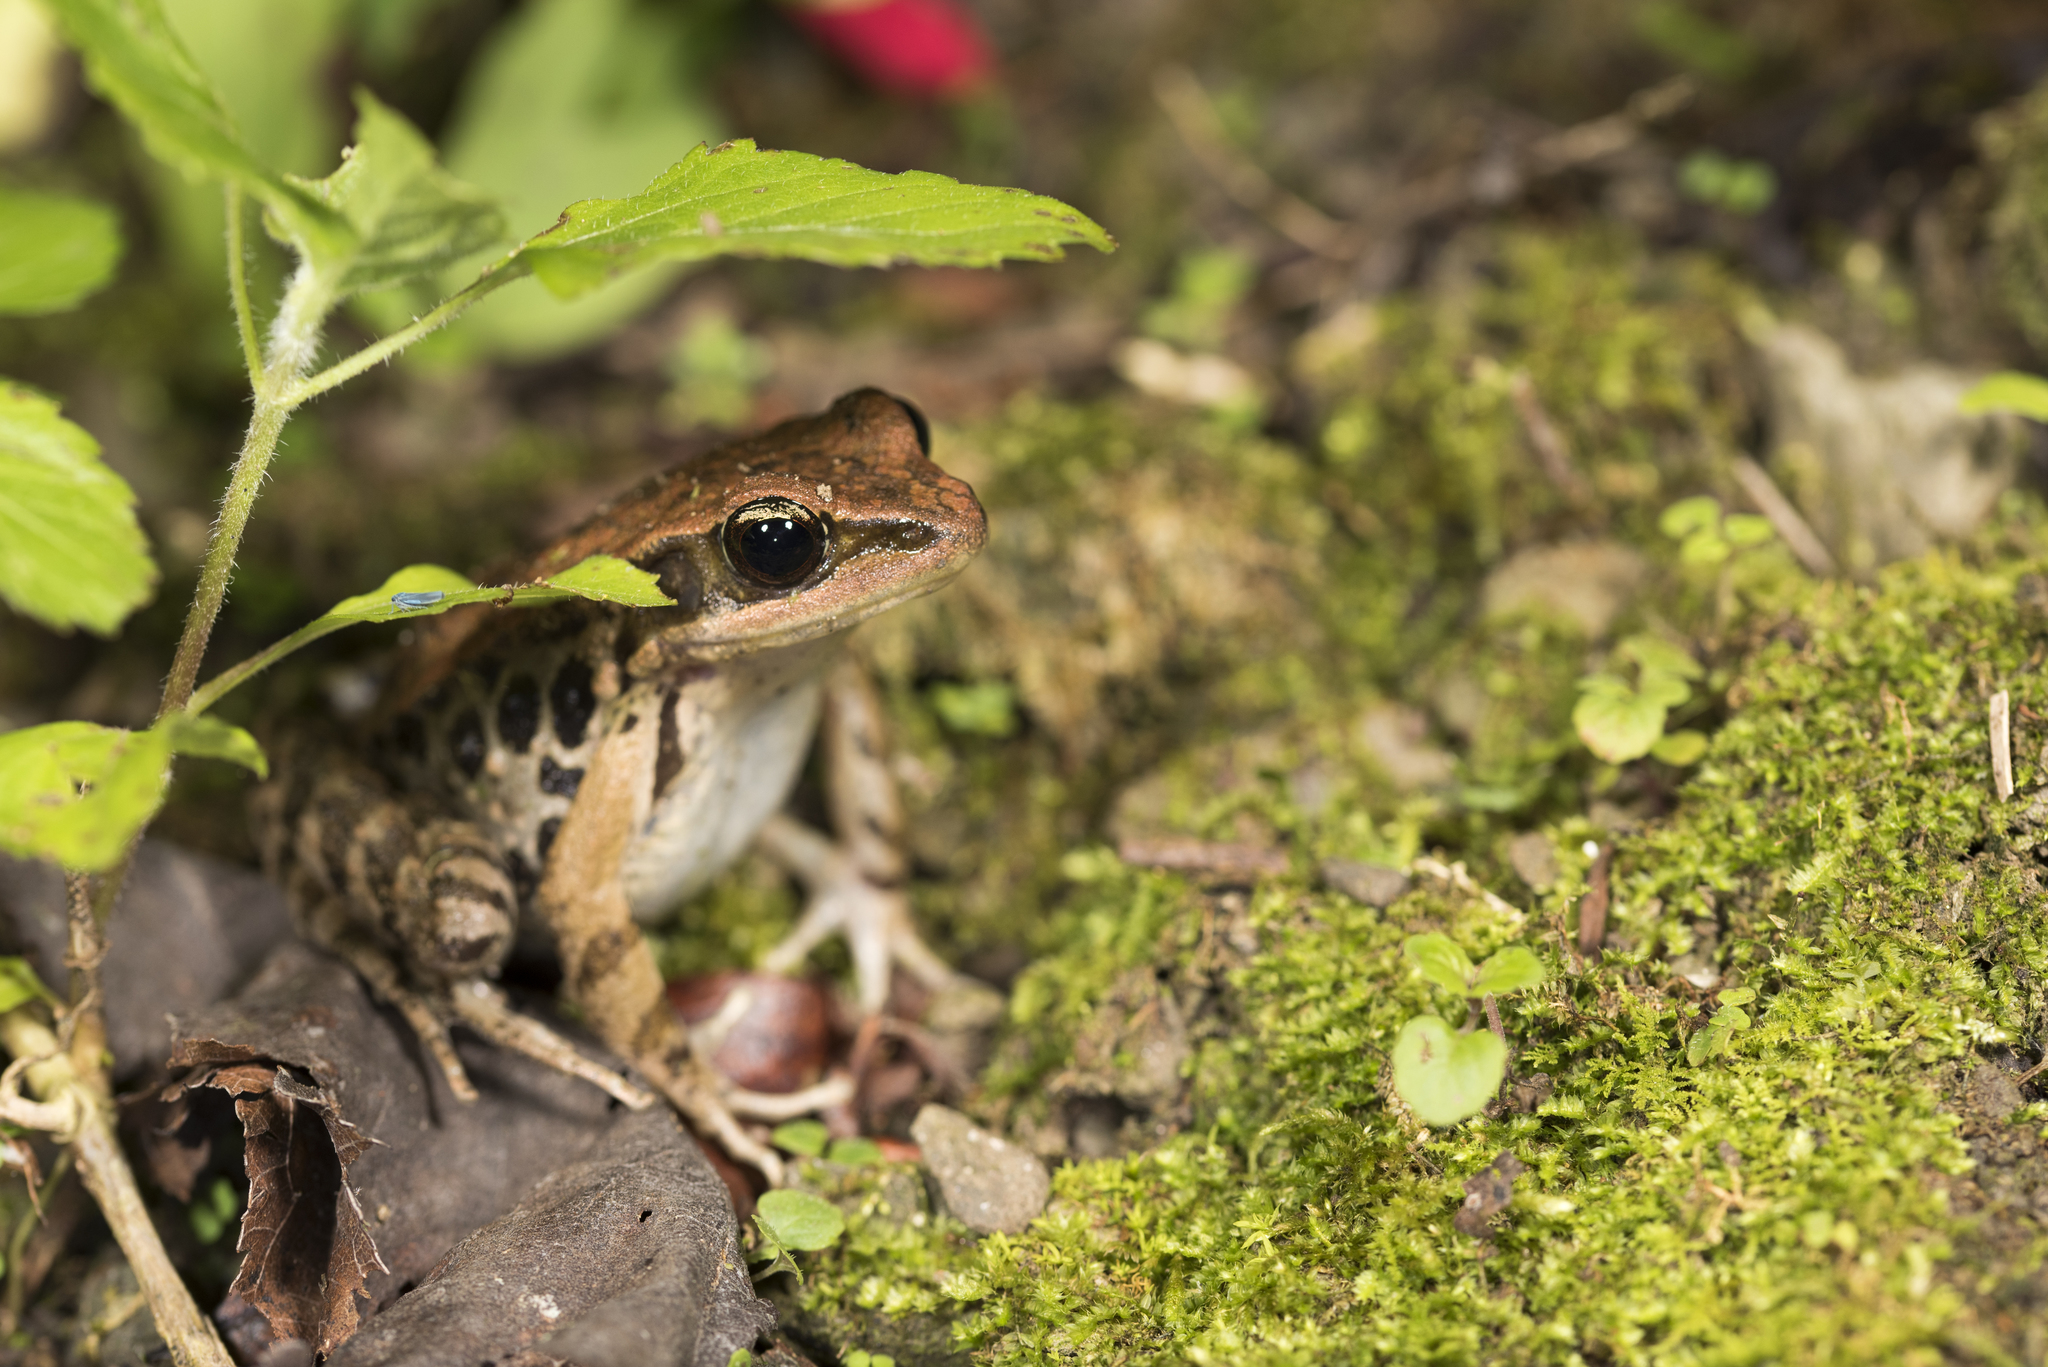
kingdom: Animalia
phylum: Chordata
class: Amphibia
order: Anura
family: Ranidae
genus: Hylarana
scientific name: Hylarana latouchii
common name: Broad-folded frog
